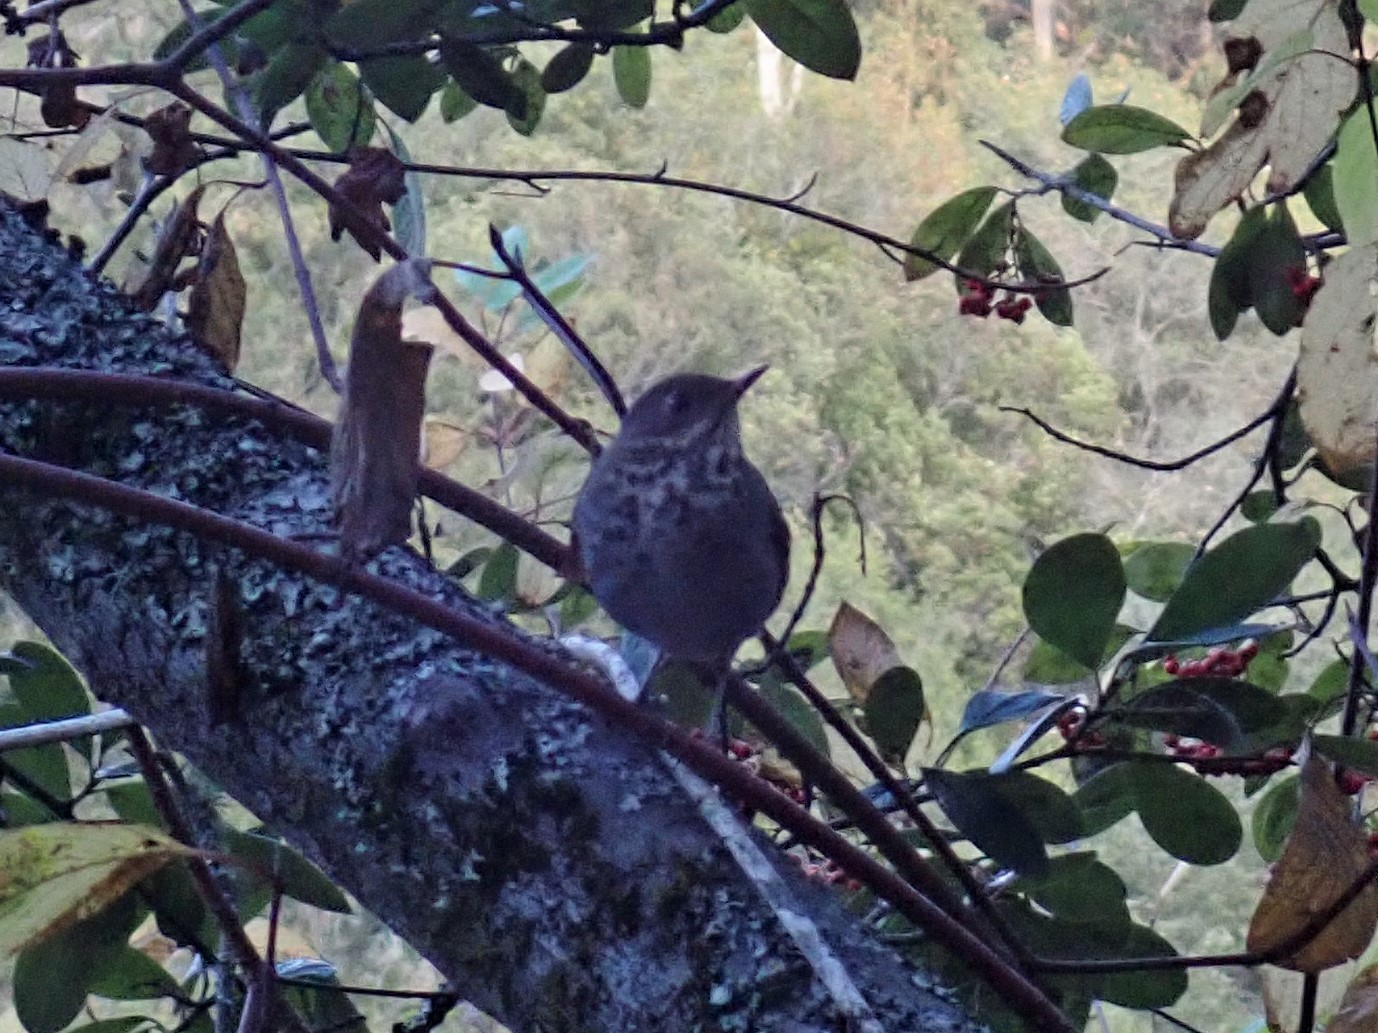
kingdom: Animalia
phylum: Chordata
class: Aves
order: Passeriformes
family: Turdidae
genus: Catharus
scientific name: Catharus guttatus
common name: Hermit thrush
